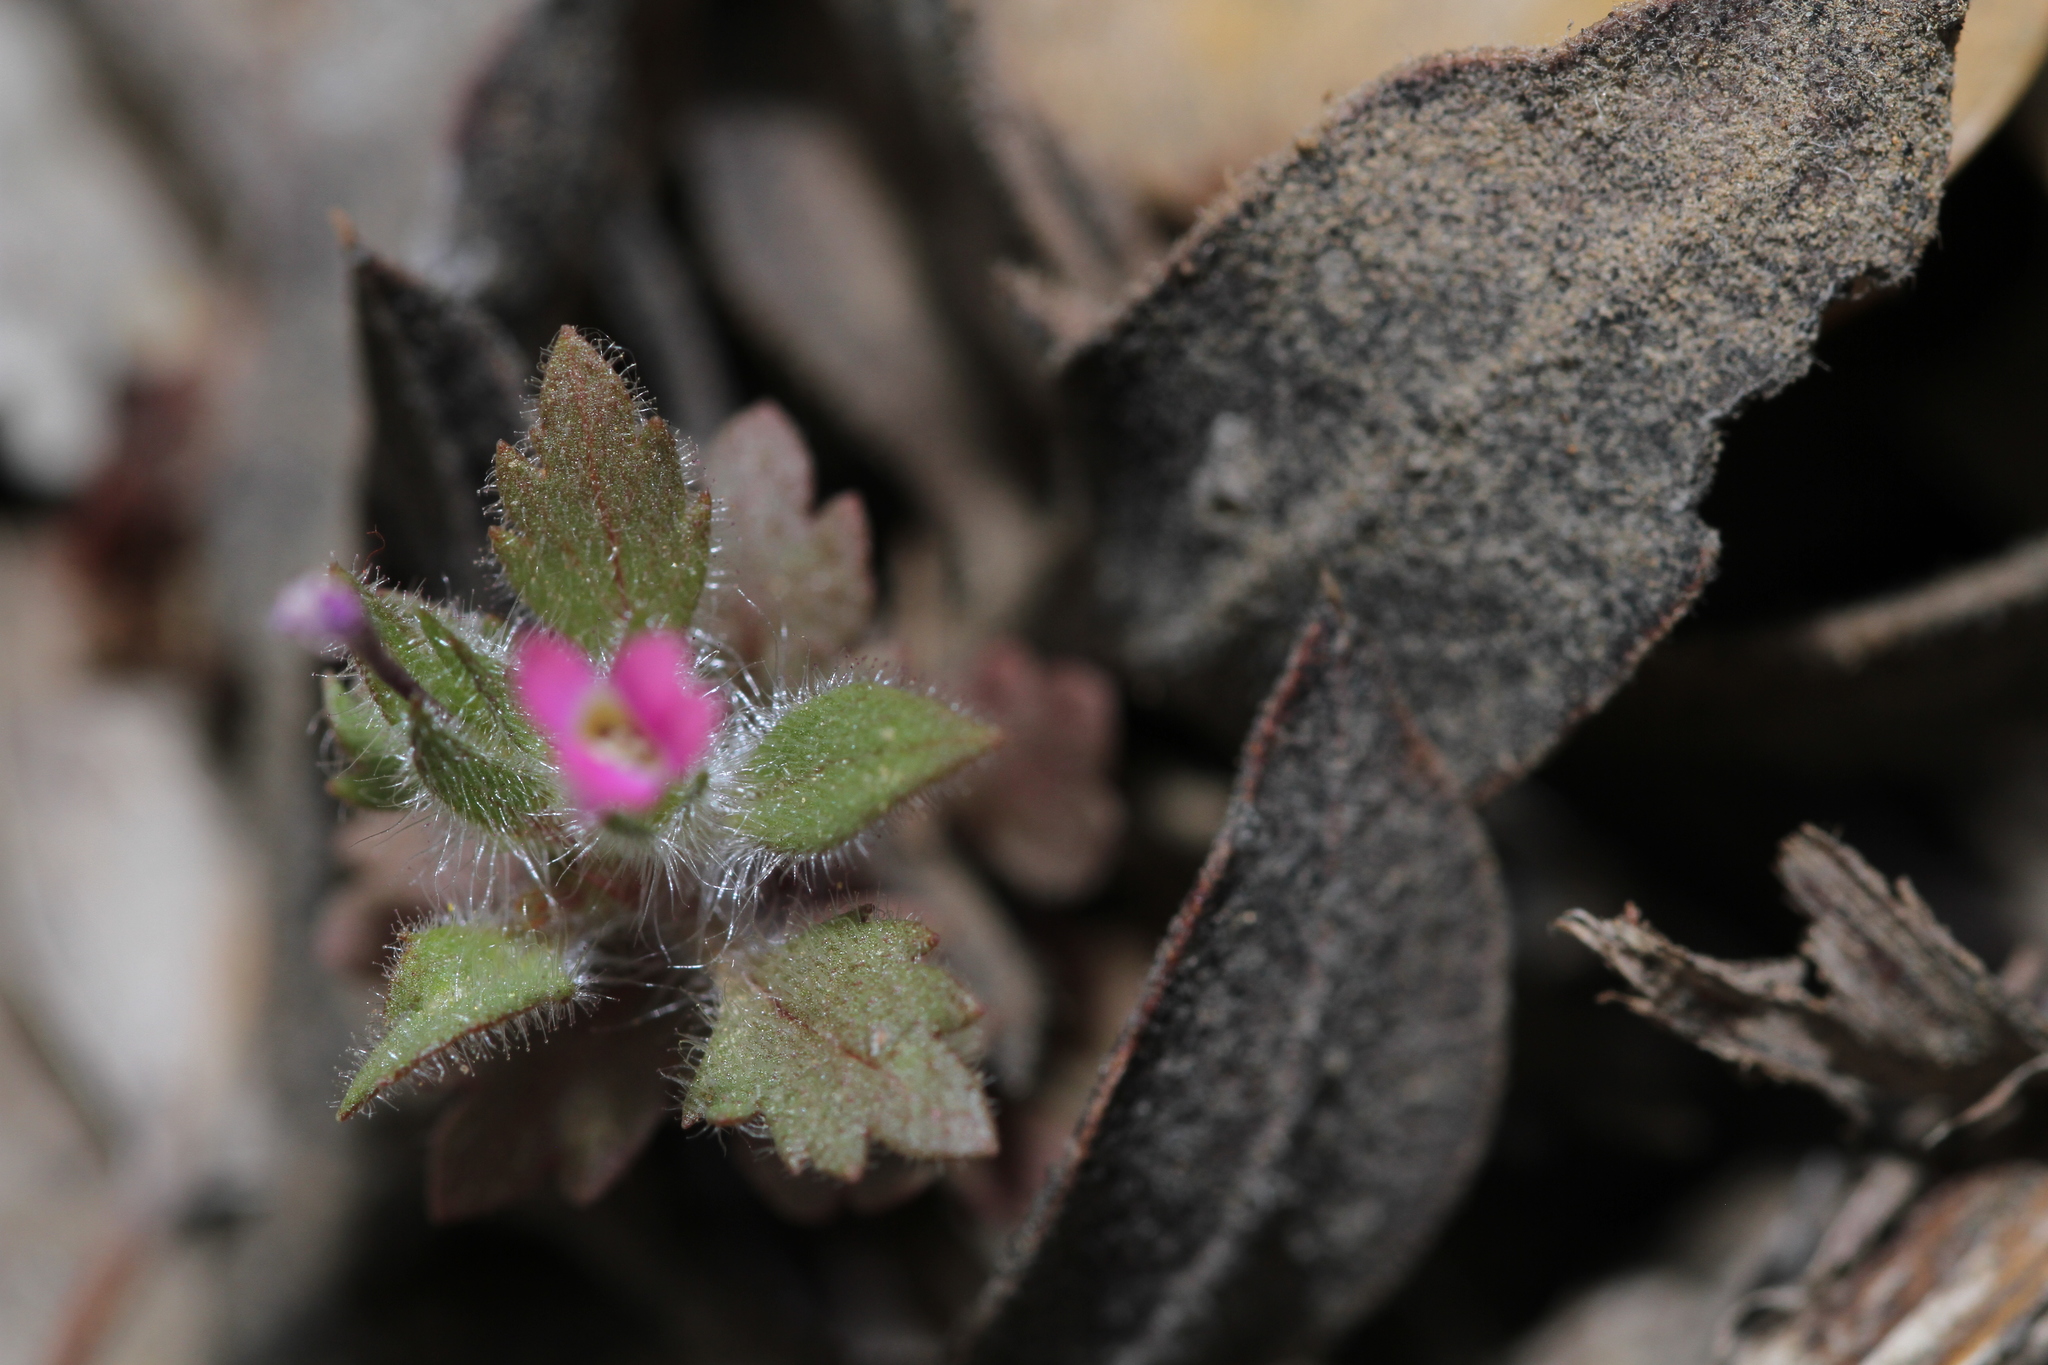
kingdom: Plantae
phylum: Tracheophyta
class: Magnoliopsida
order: Ericales
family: Polemoniaceae
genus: Collomia
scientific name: Collomia heterophylla
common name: Variable-leaved collomia
